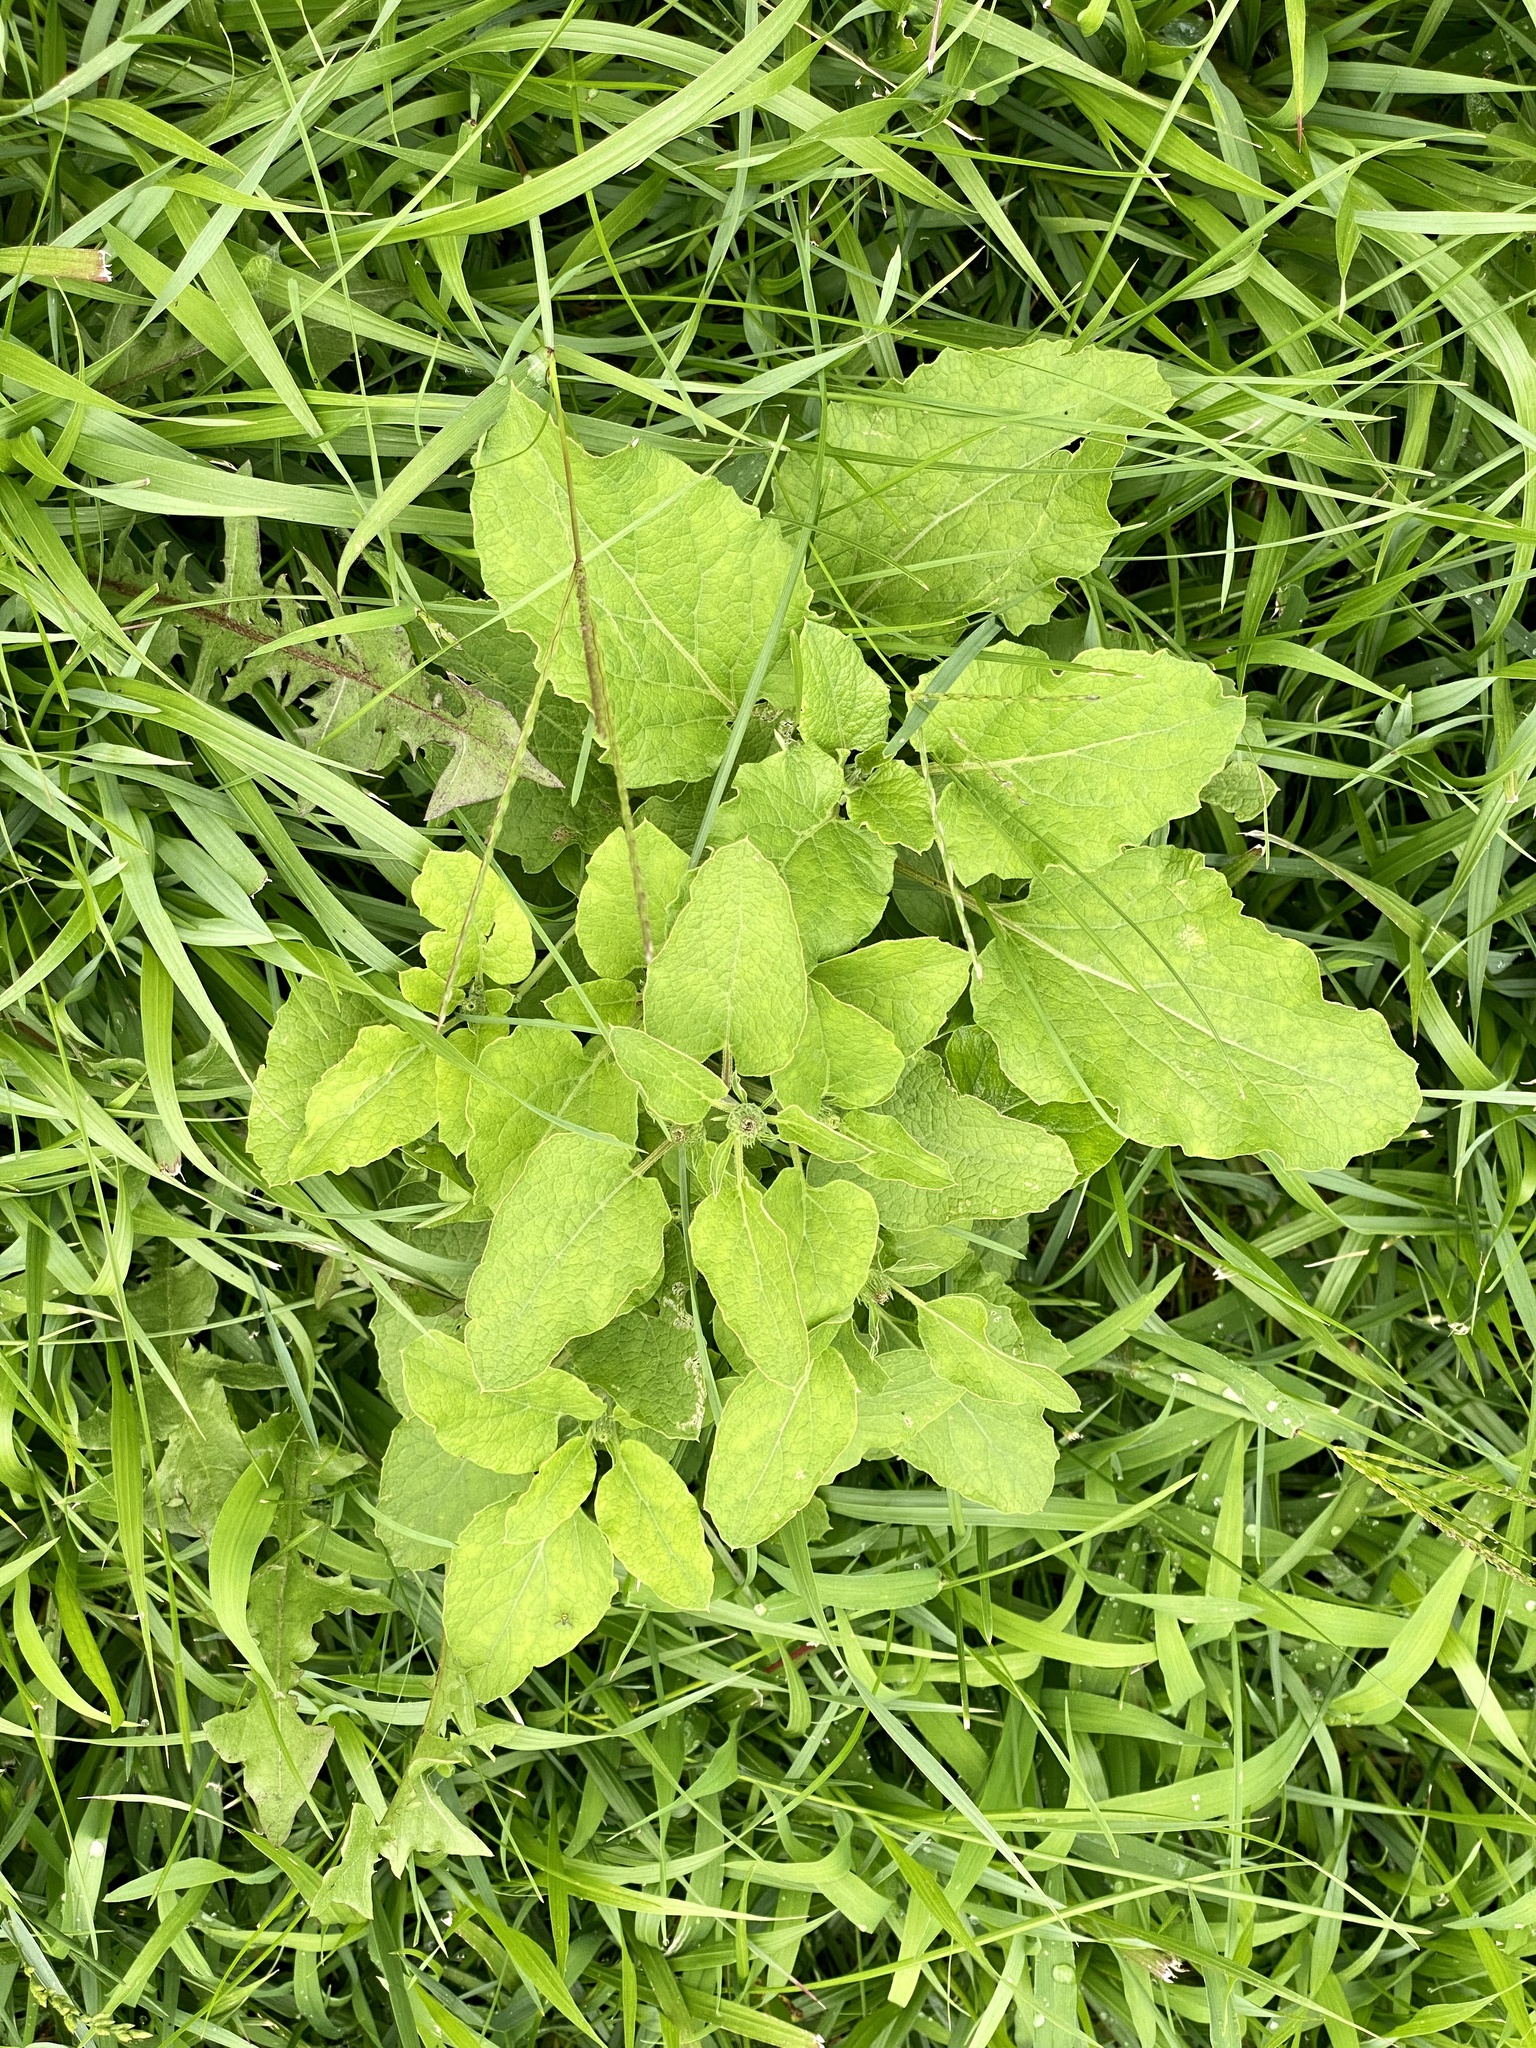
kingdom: Plantae
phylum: Tracheophyta
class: Magnoliopsida
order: Asterales
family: Asteraceae
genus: Arctium
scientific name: Arctium
